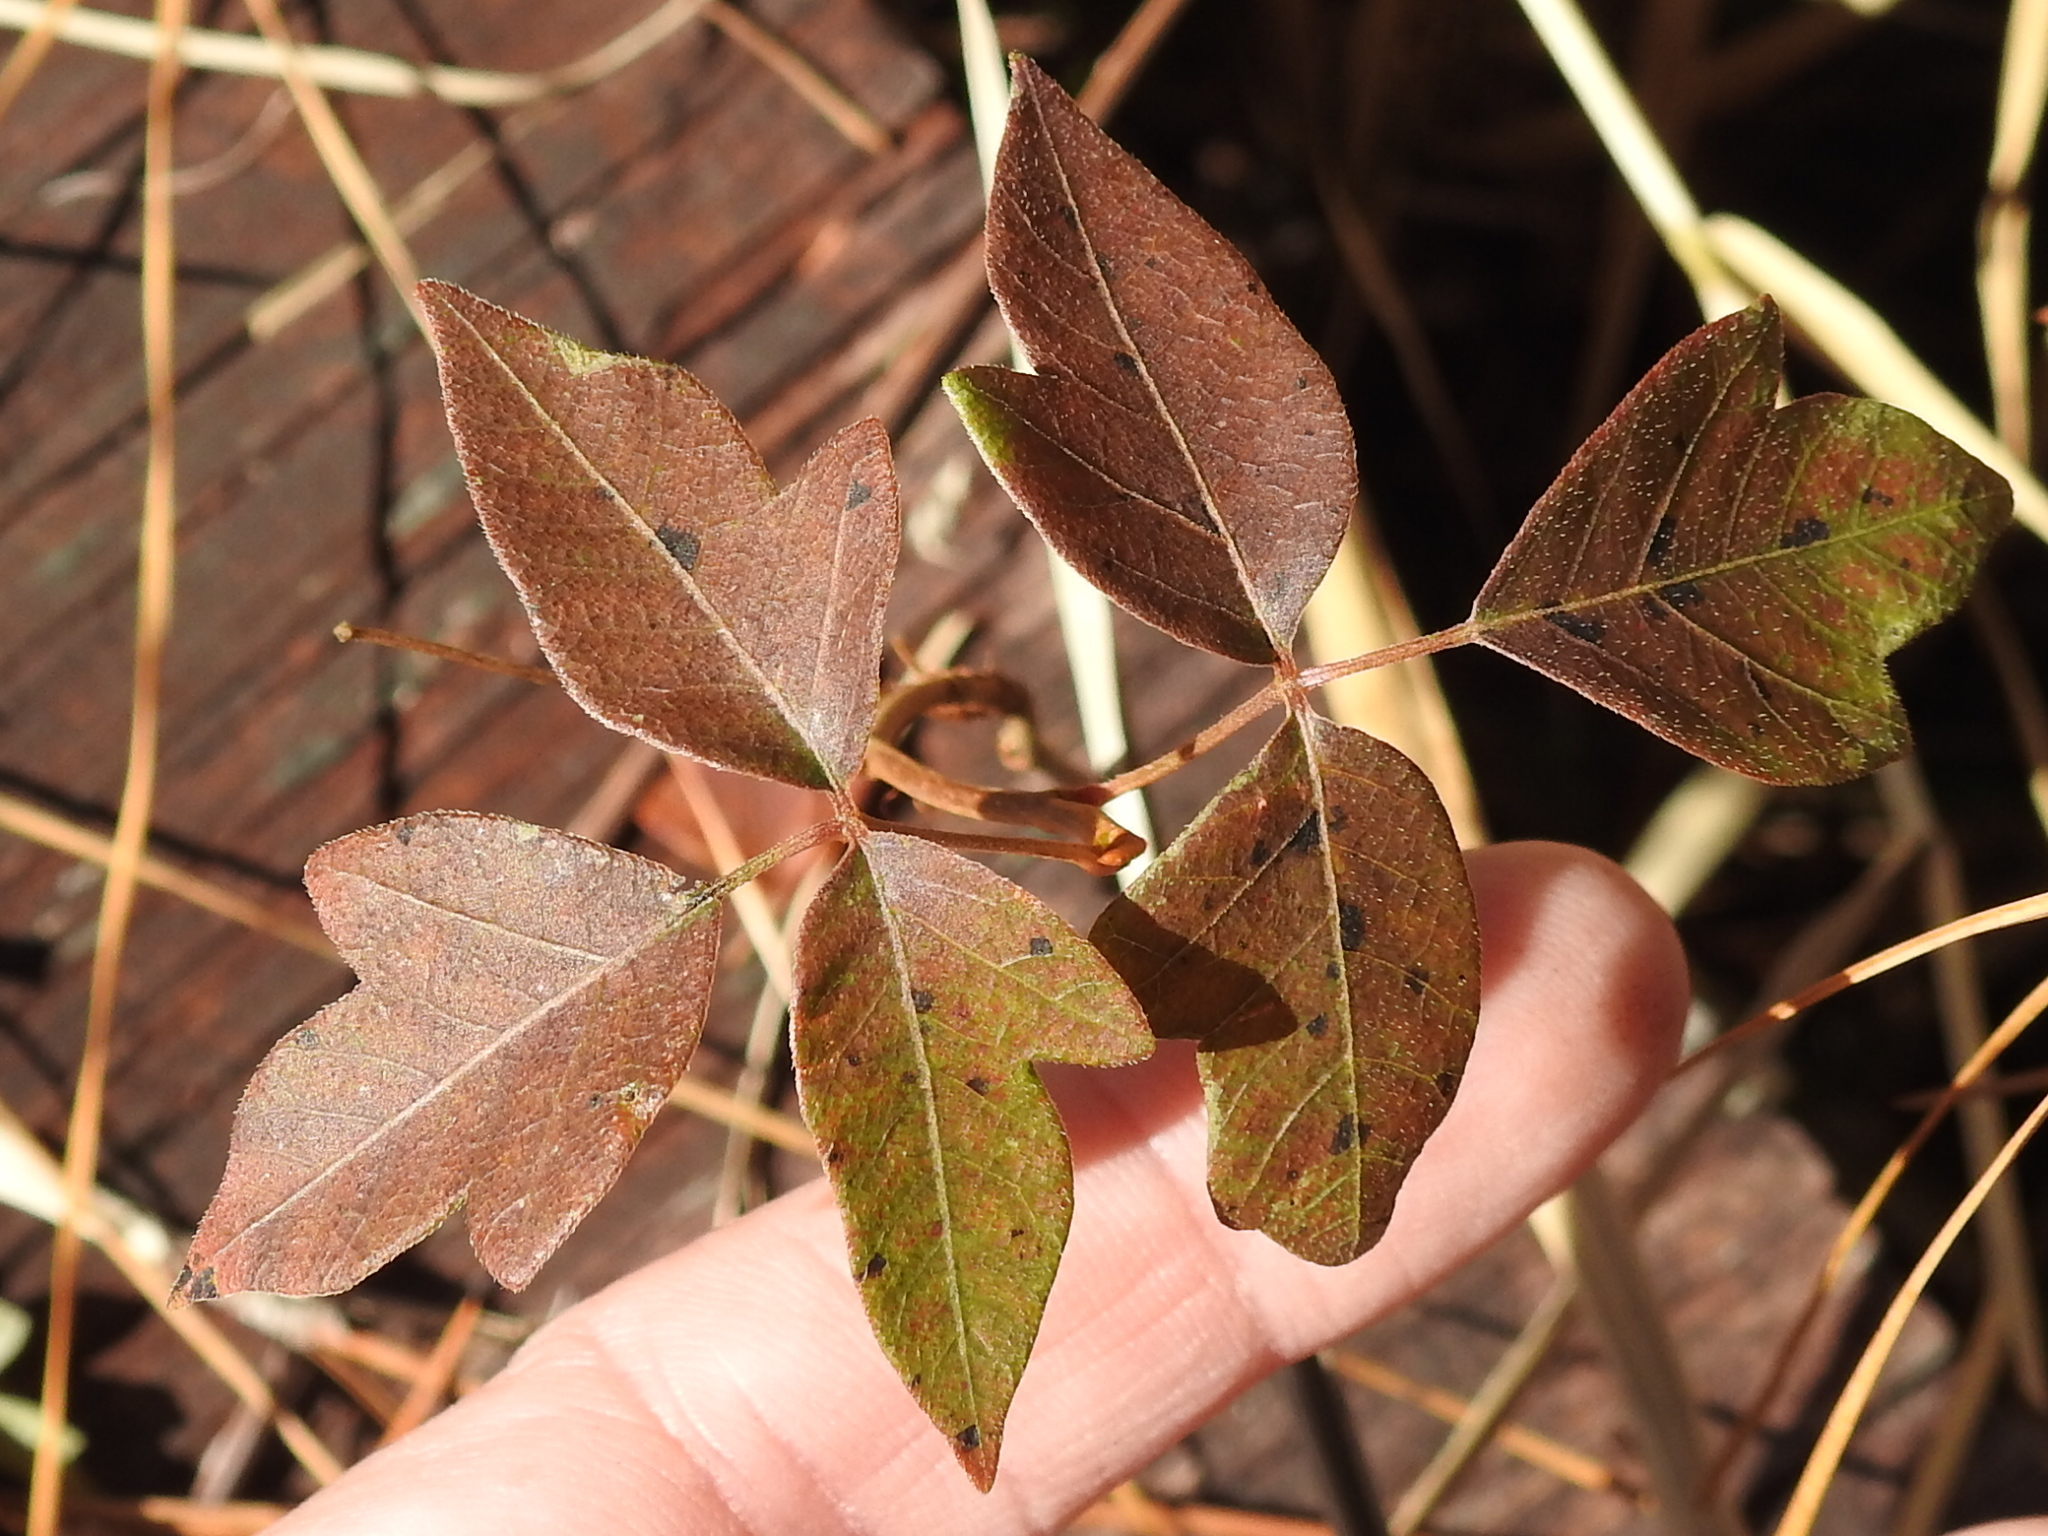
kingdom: Plantae
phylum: Tracheophyta
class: Magnoliopsida
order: Sapindales
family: Anacardiaceae
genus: Toxicodendron
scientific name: Toxicodendron pubescens
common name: Eastern poison-oak
